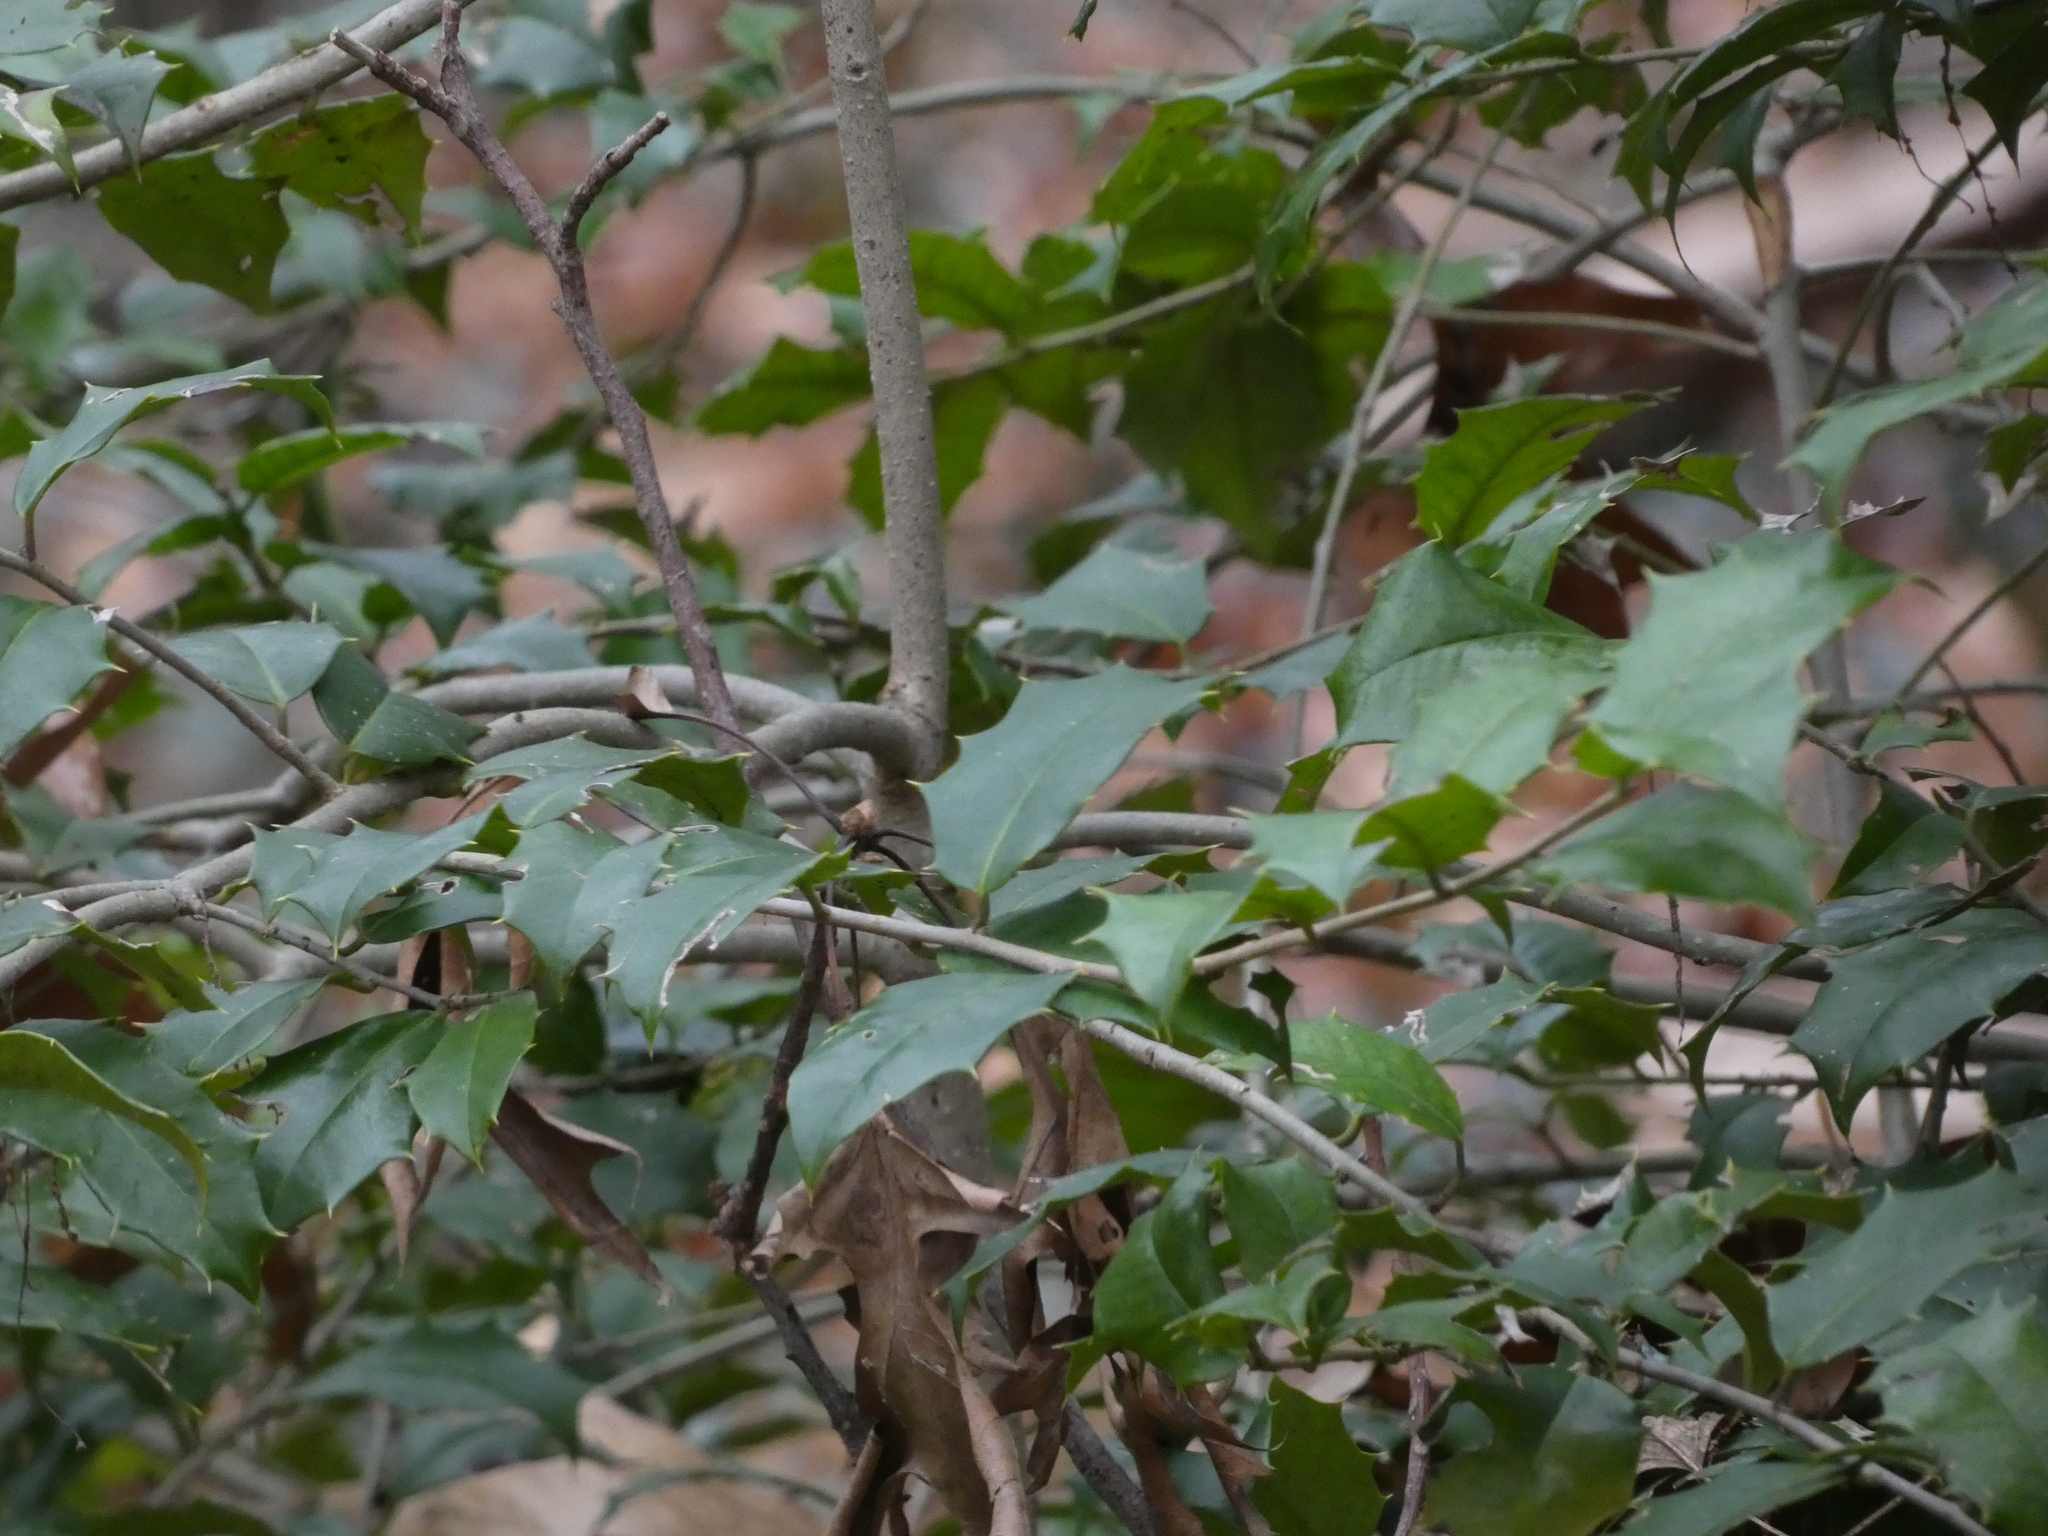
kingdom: Plantae
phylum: Tracheophyta
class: Magnoliopsida
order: Aquifoliales
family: Aquifoliaceae
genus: Ilex
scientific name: Ilex opaca
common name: American holly
